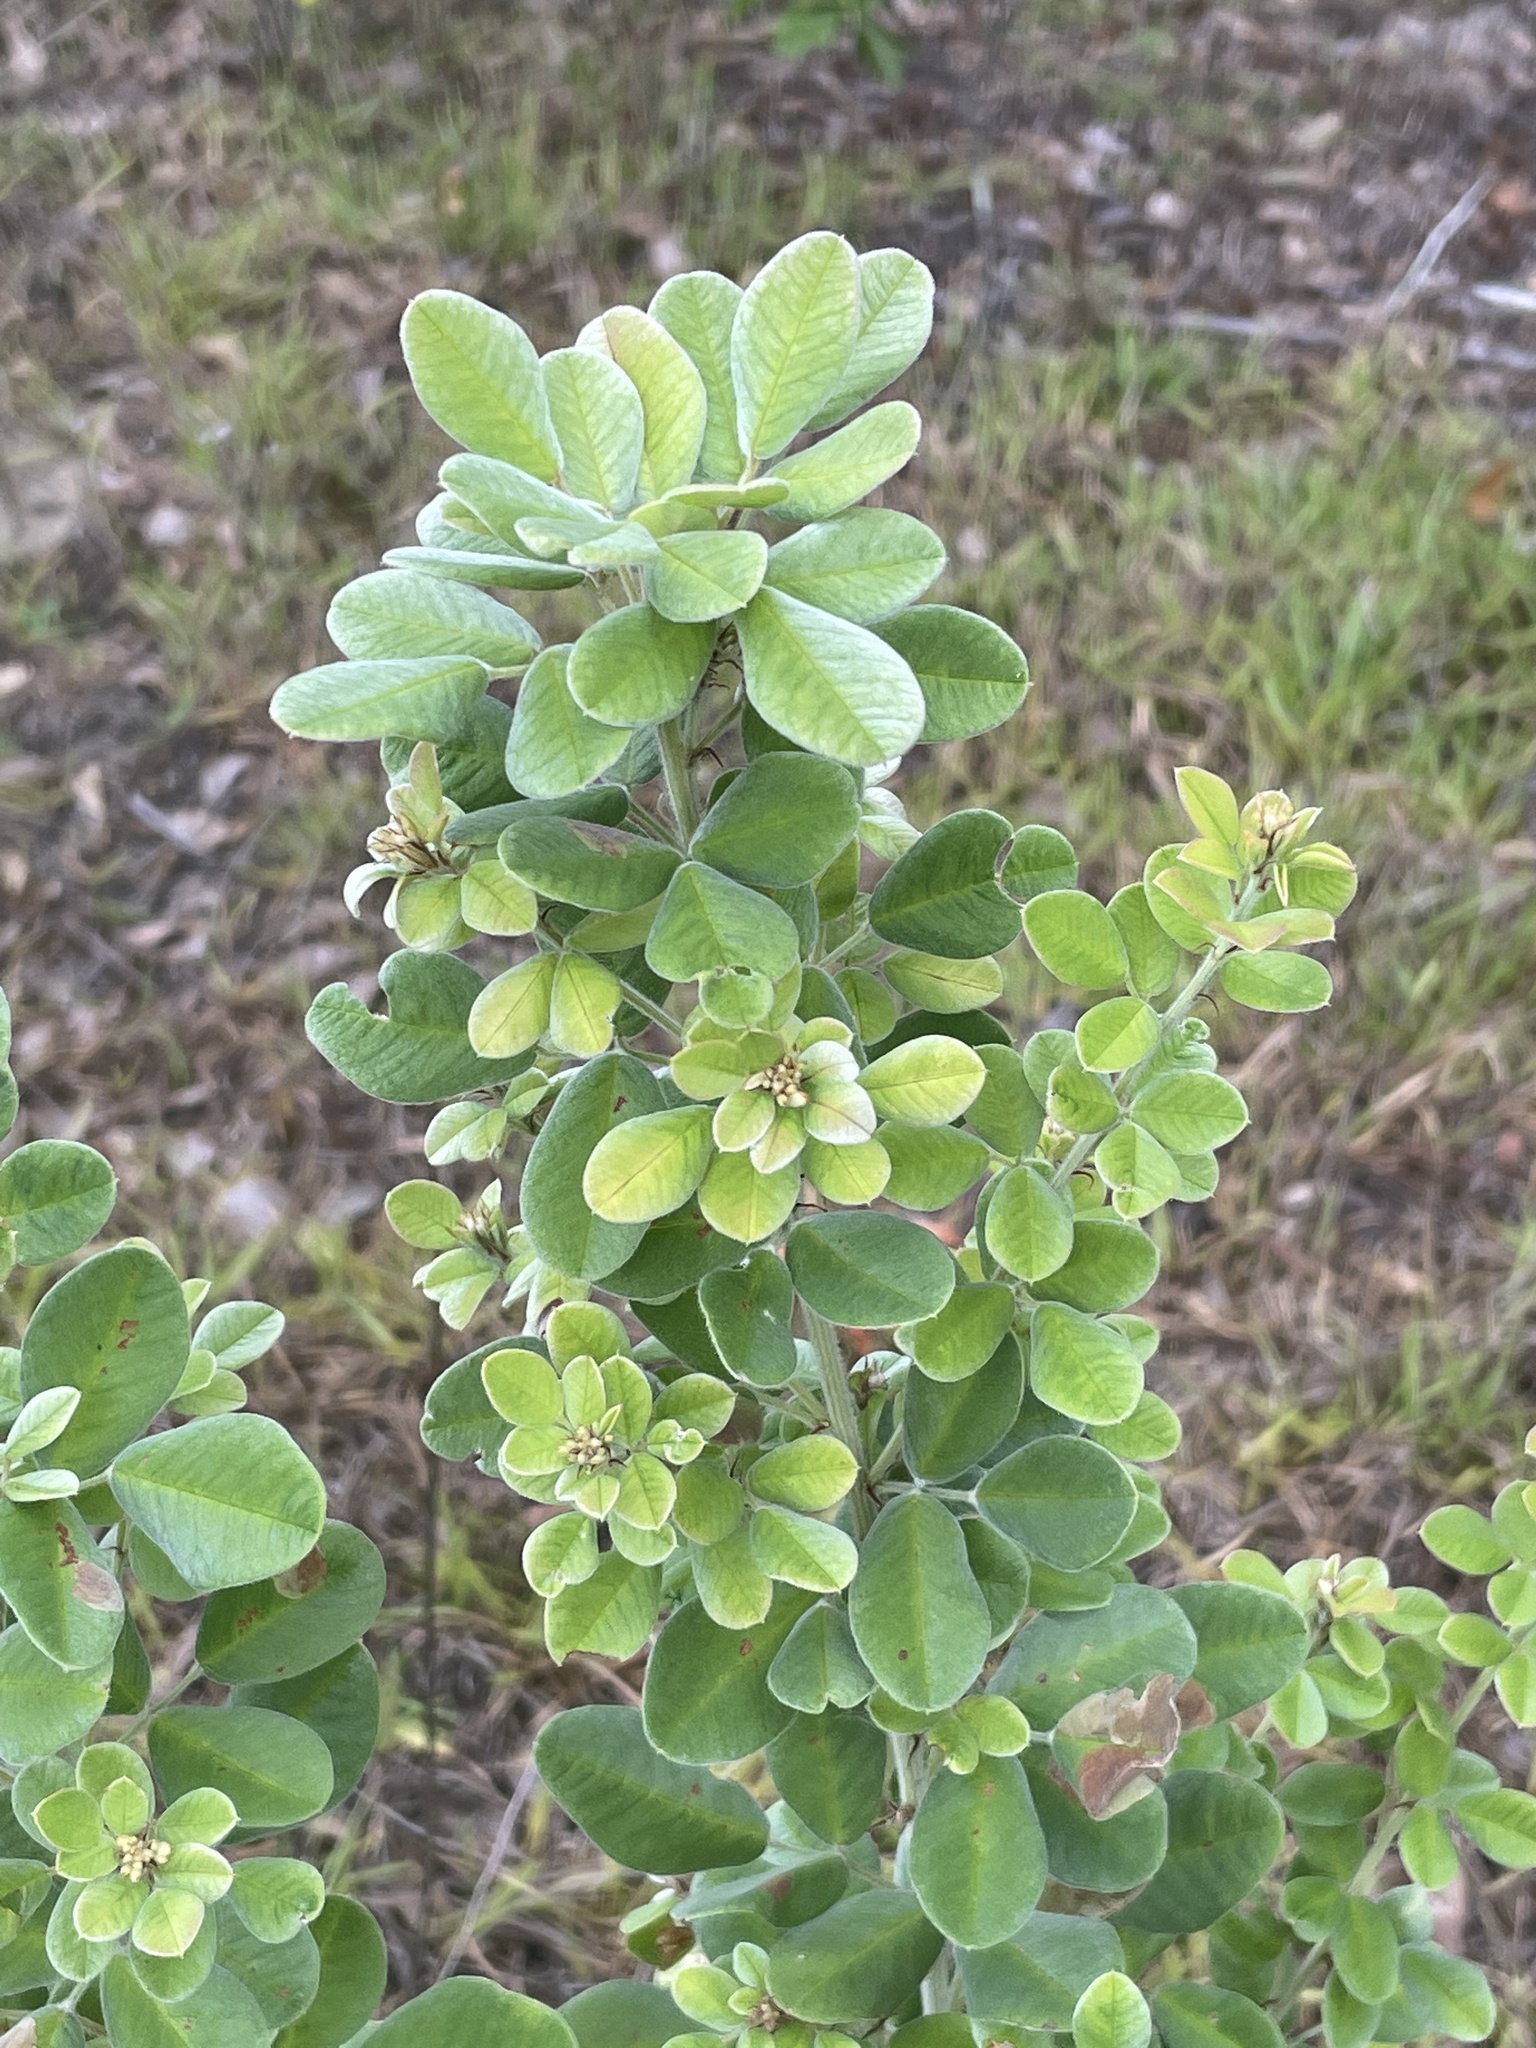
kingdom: Plantae
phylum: Tracheophyta
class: Magnoliopsida
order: Fabales
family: Fabaceae
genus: Lespedeza
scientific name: Lespedeza hirta
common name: Hairy lespedeza
